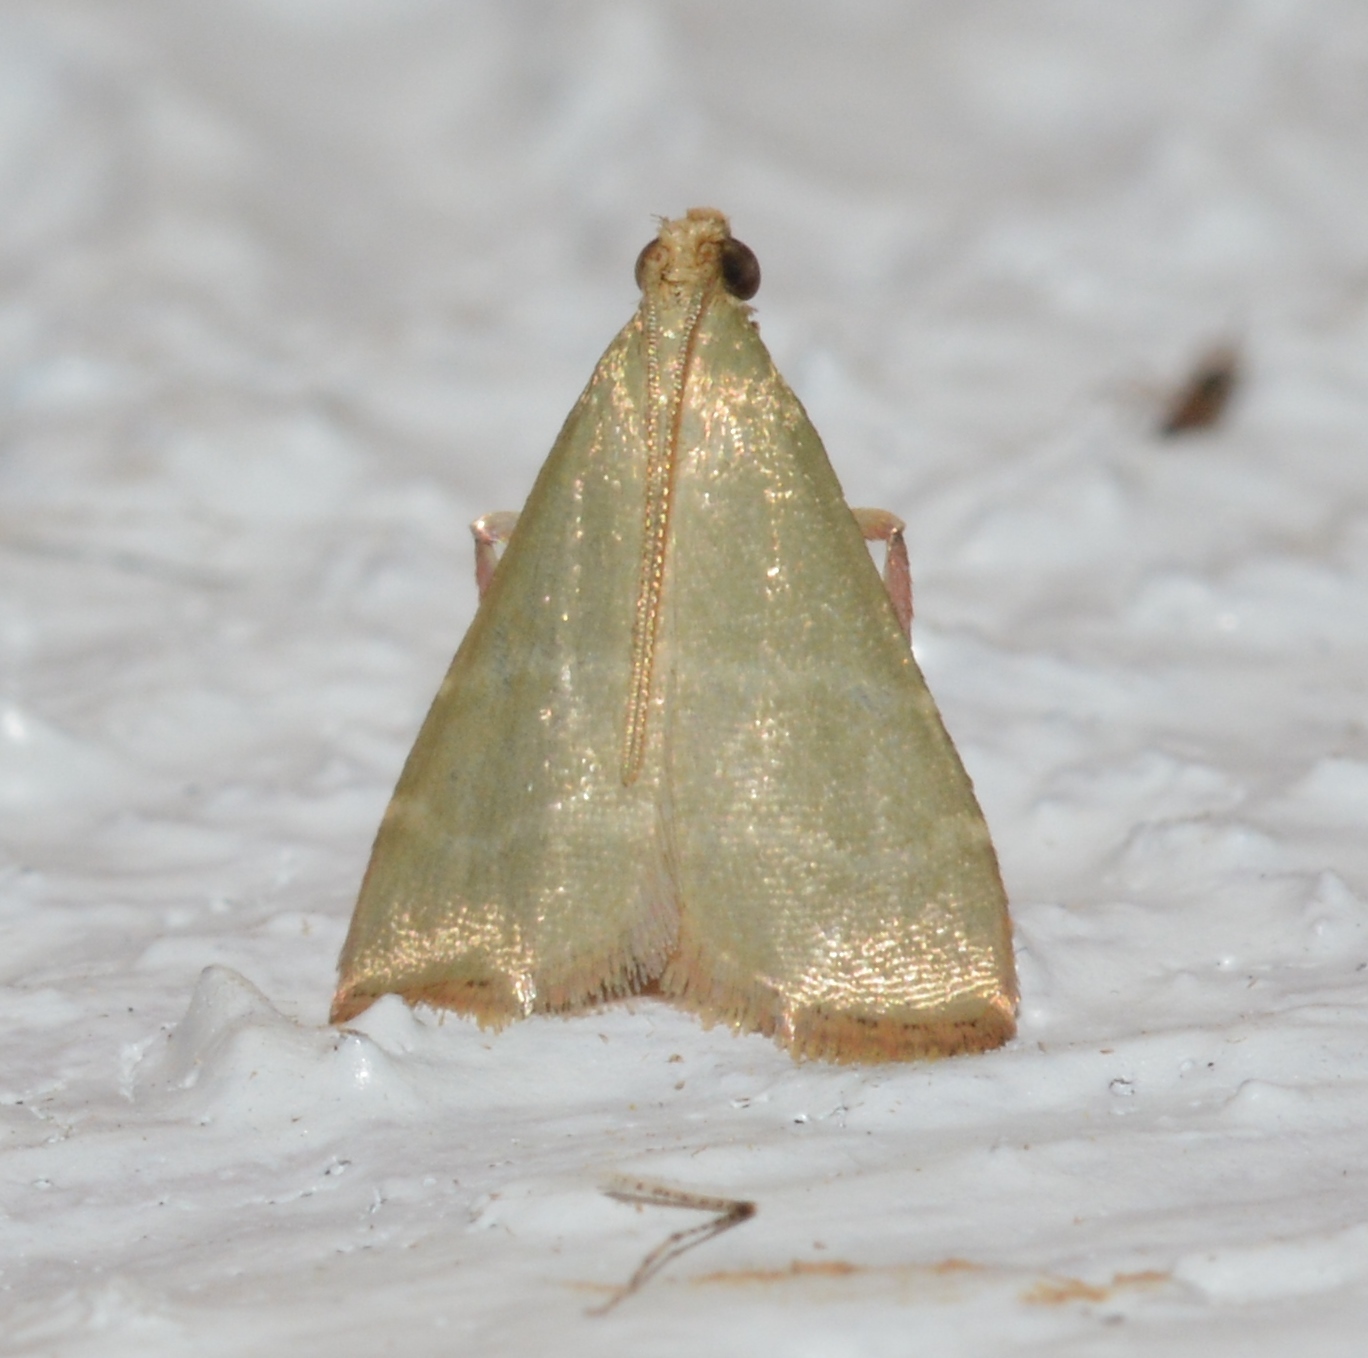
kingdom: Animalia
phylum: Arthropoda
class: Insecta
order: Lepidoptera
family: Pyralidae
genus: Arta
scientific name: Arta olivalis
